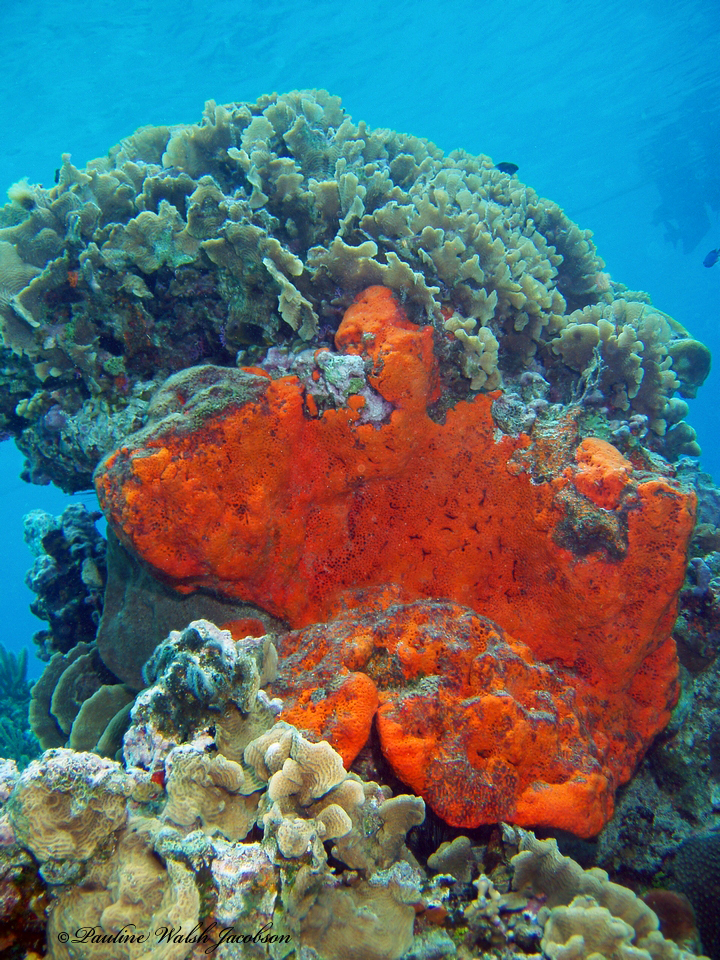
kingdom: Animalia
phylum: Porifera
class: Demospongiae
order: Agelasida
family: Agelasidae
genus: Agelas
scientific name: Agelas clathrodes
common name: Orange elephant ear sponge
